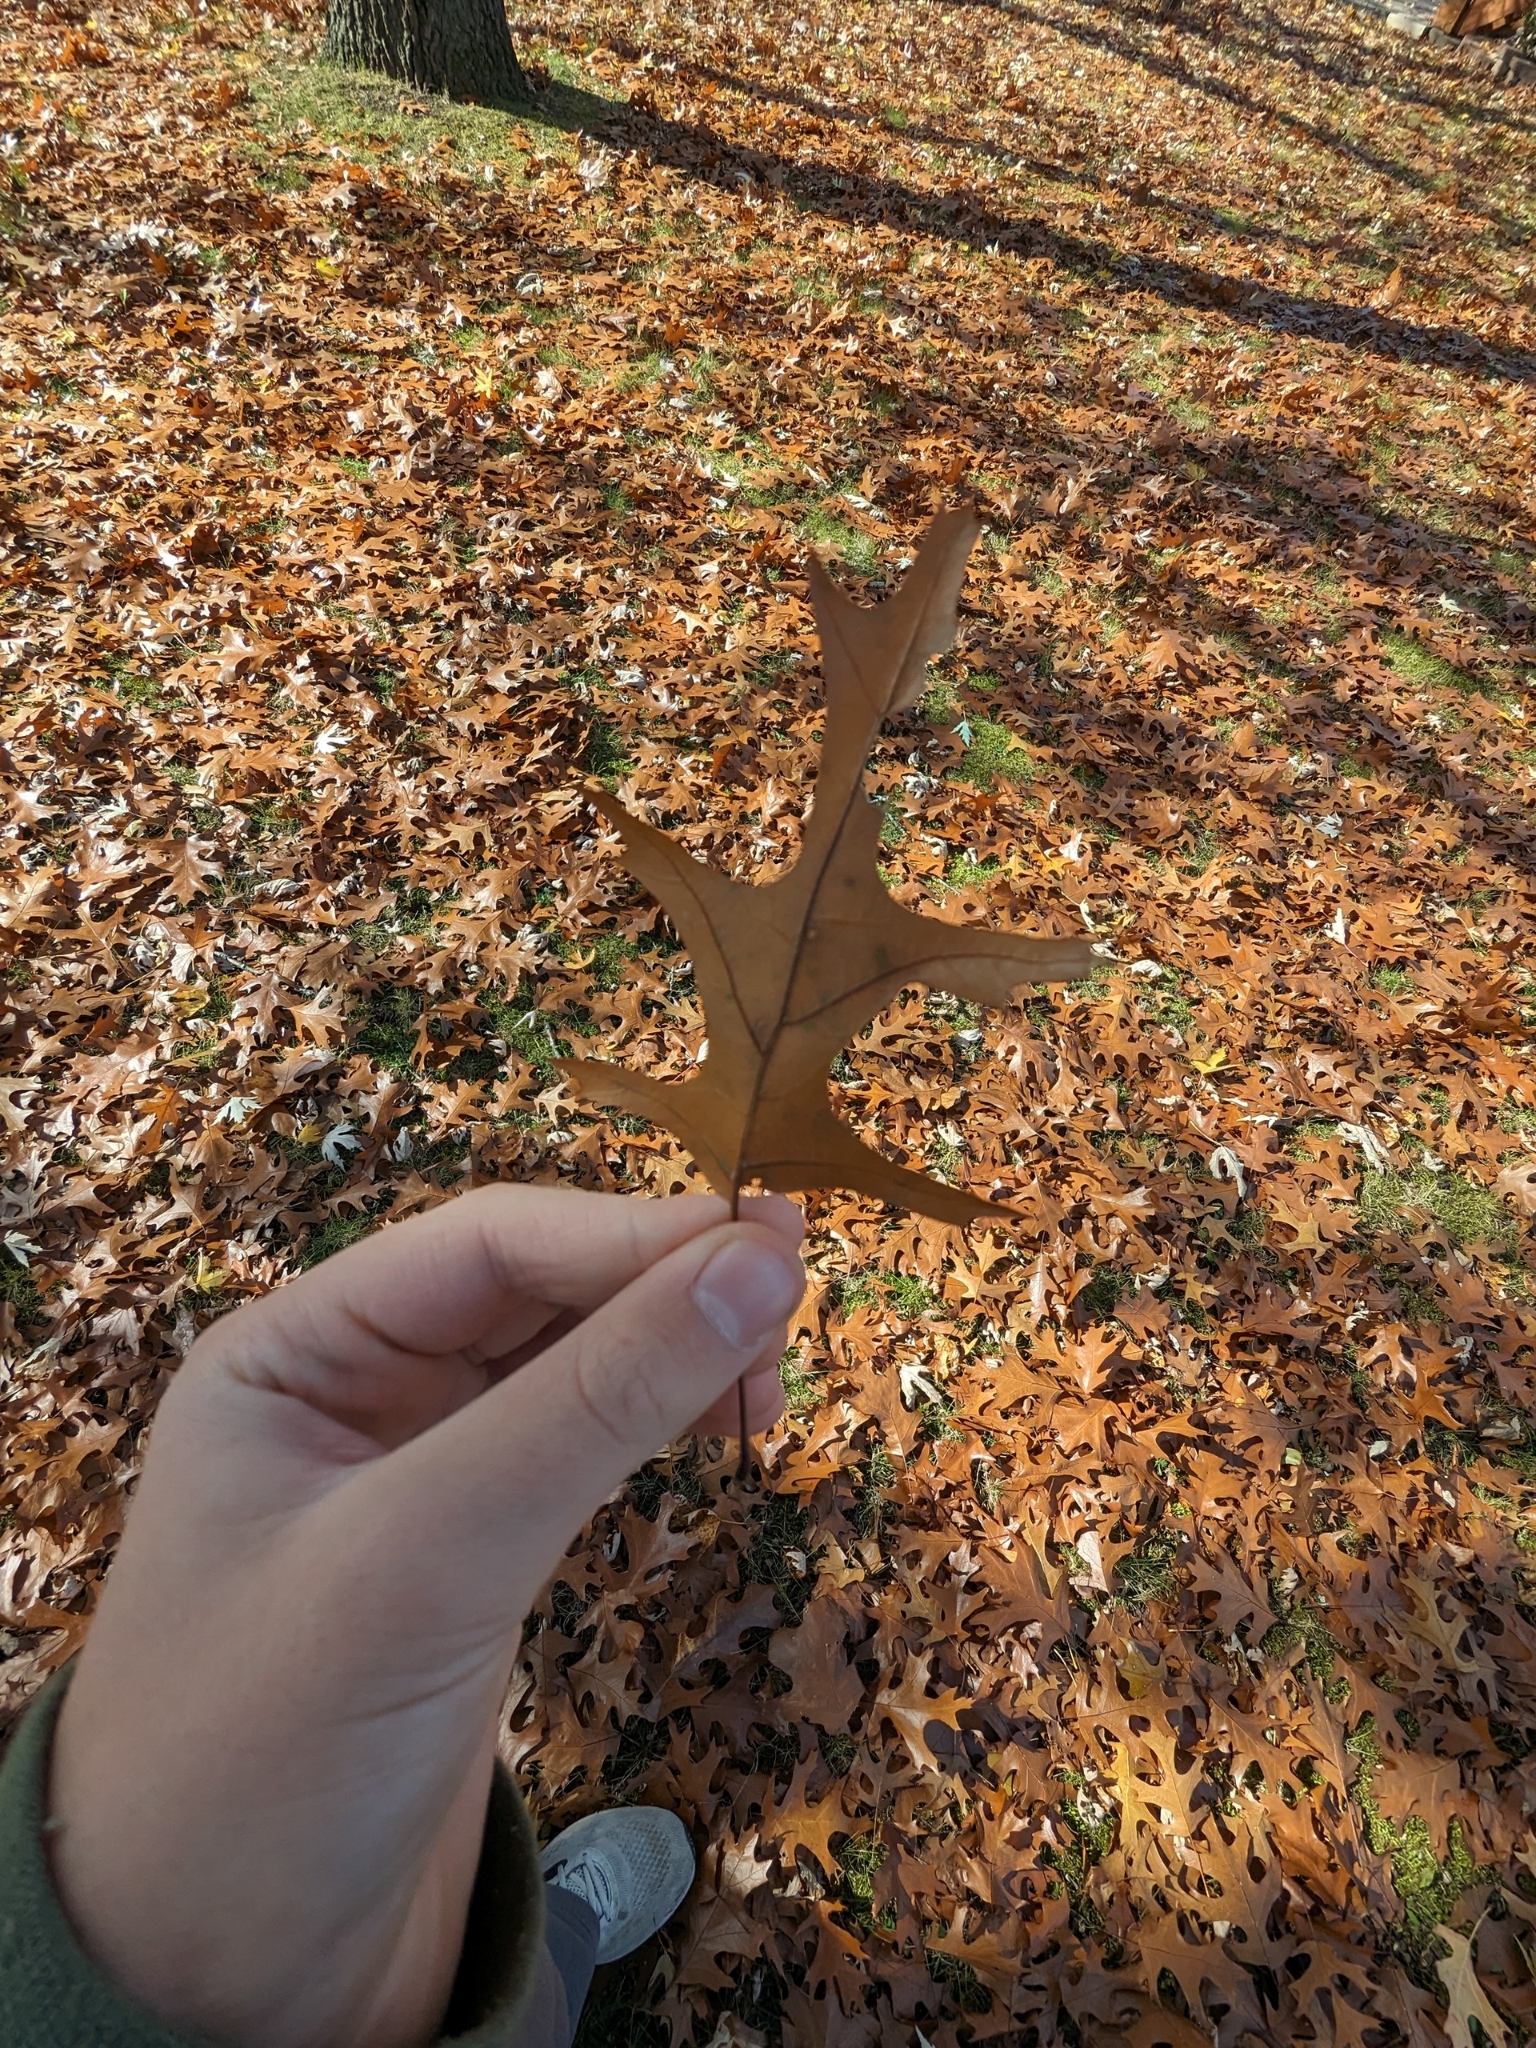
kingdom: Plantae
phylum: Tracheophyta
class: Magnoliopsida
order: Fagales
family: Fagaceae
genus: Quercus
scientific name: Quercus ellipsoidalis
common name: Hill's oak
